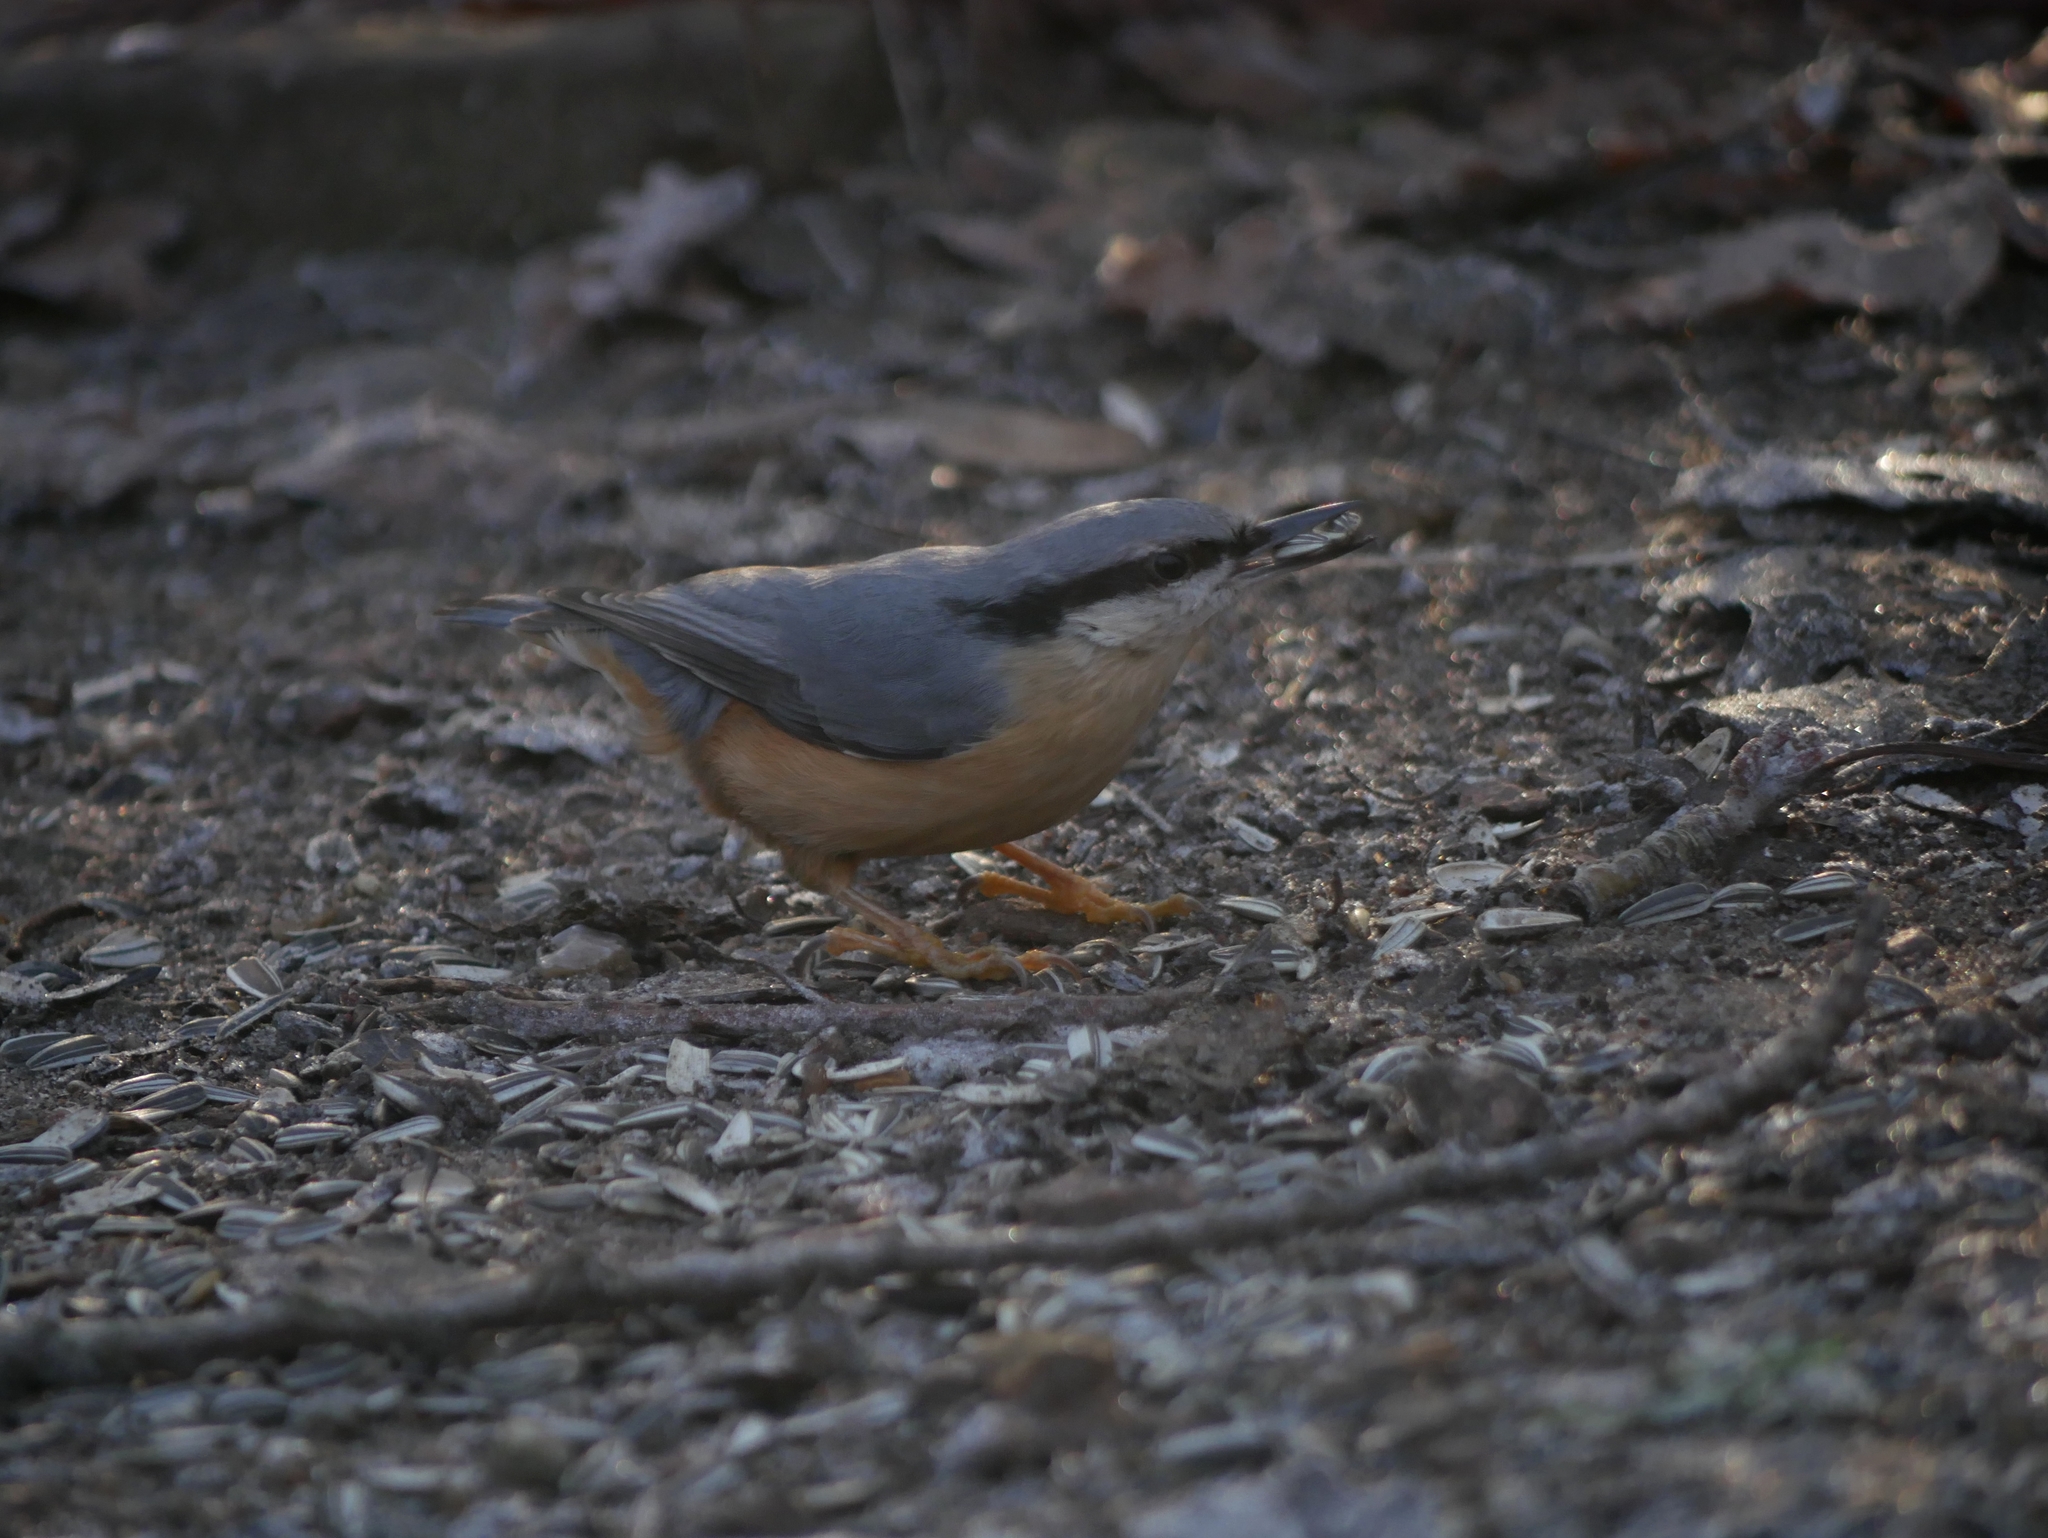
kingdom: Animalia
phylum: Chordata
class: Aves
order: Passeriformes
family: Sittidae
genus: Sitta
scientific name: Sitta europaea
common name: Eurasian nuthatch
